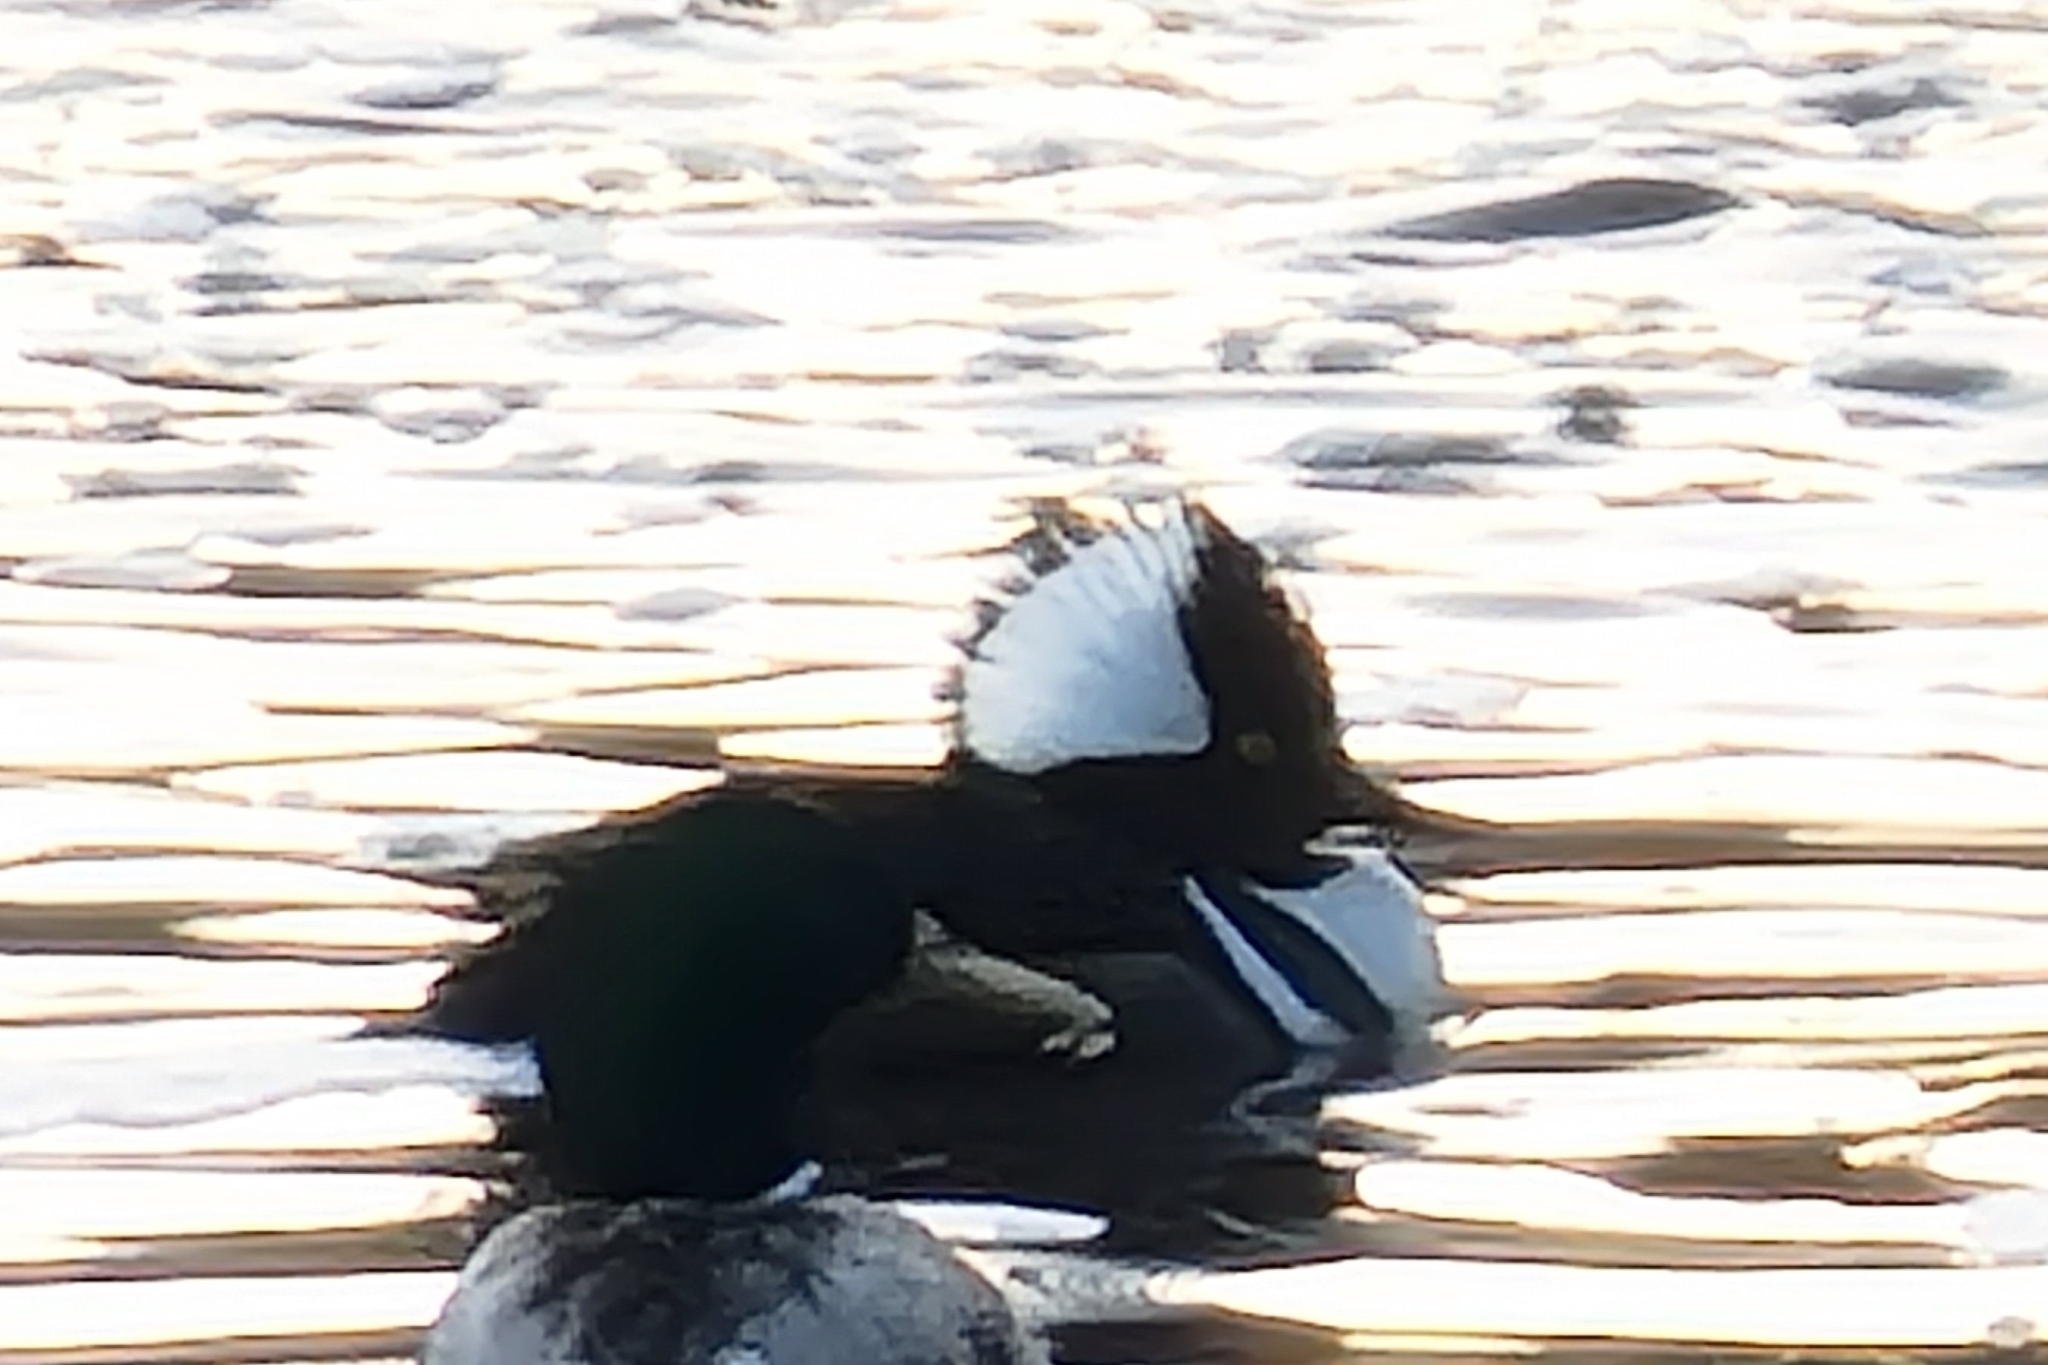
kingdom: Animalia
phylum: Chordata
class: Aves
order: Anseriformes
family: Anatidae
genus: Lophodytes
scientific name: Lophodytes cucullatus
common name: Hooded merganser
